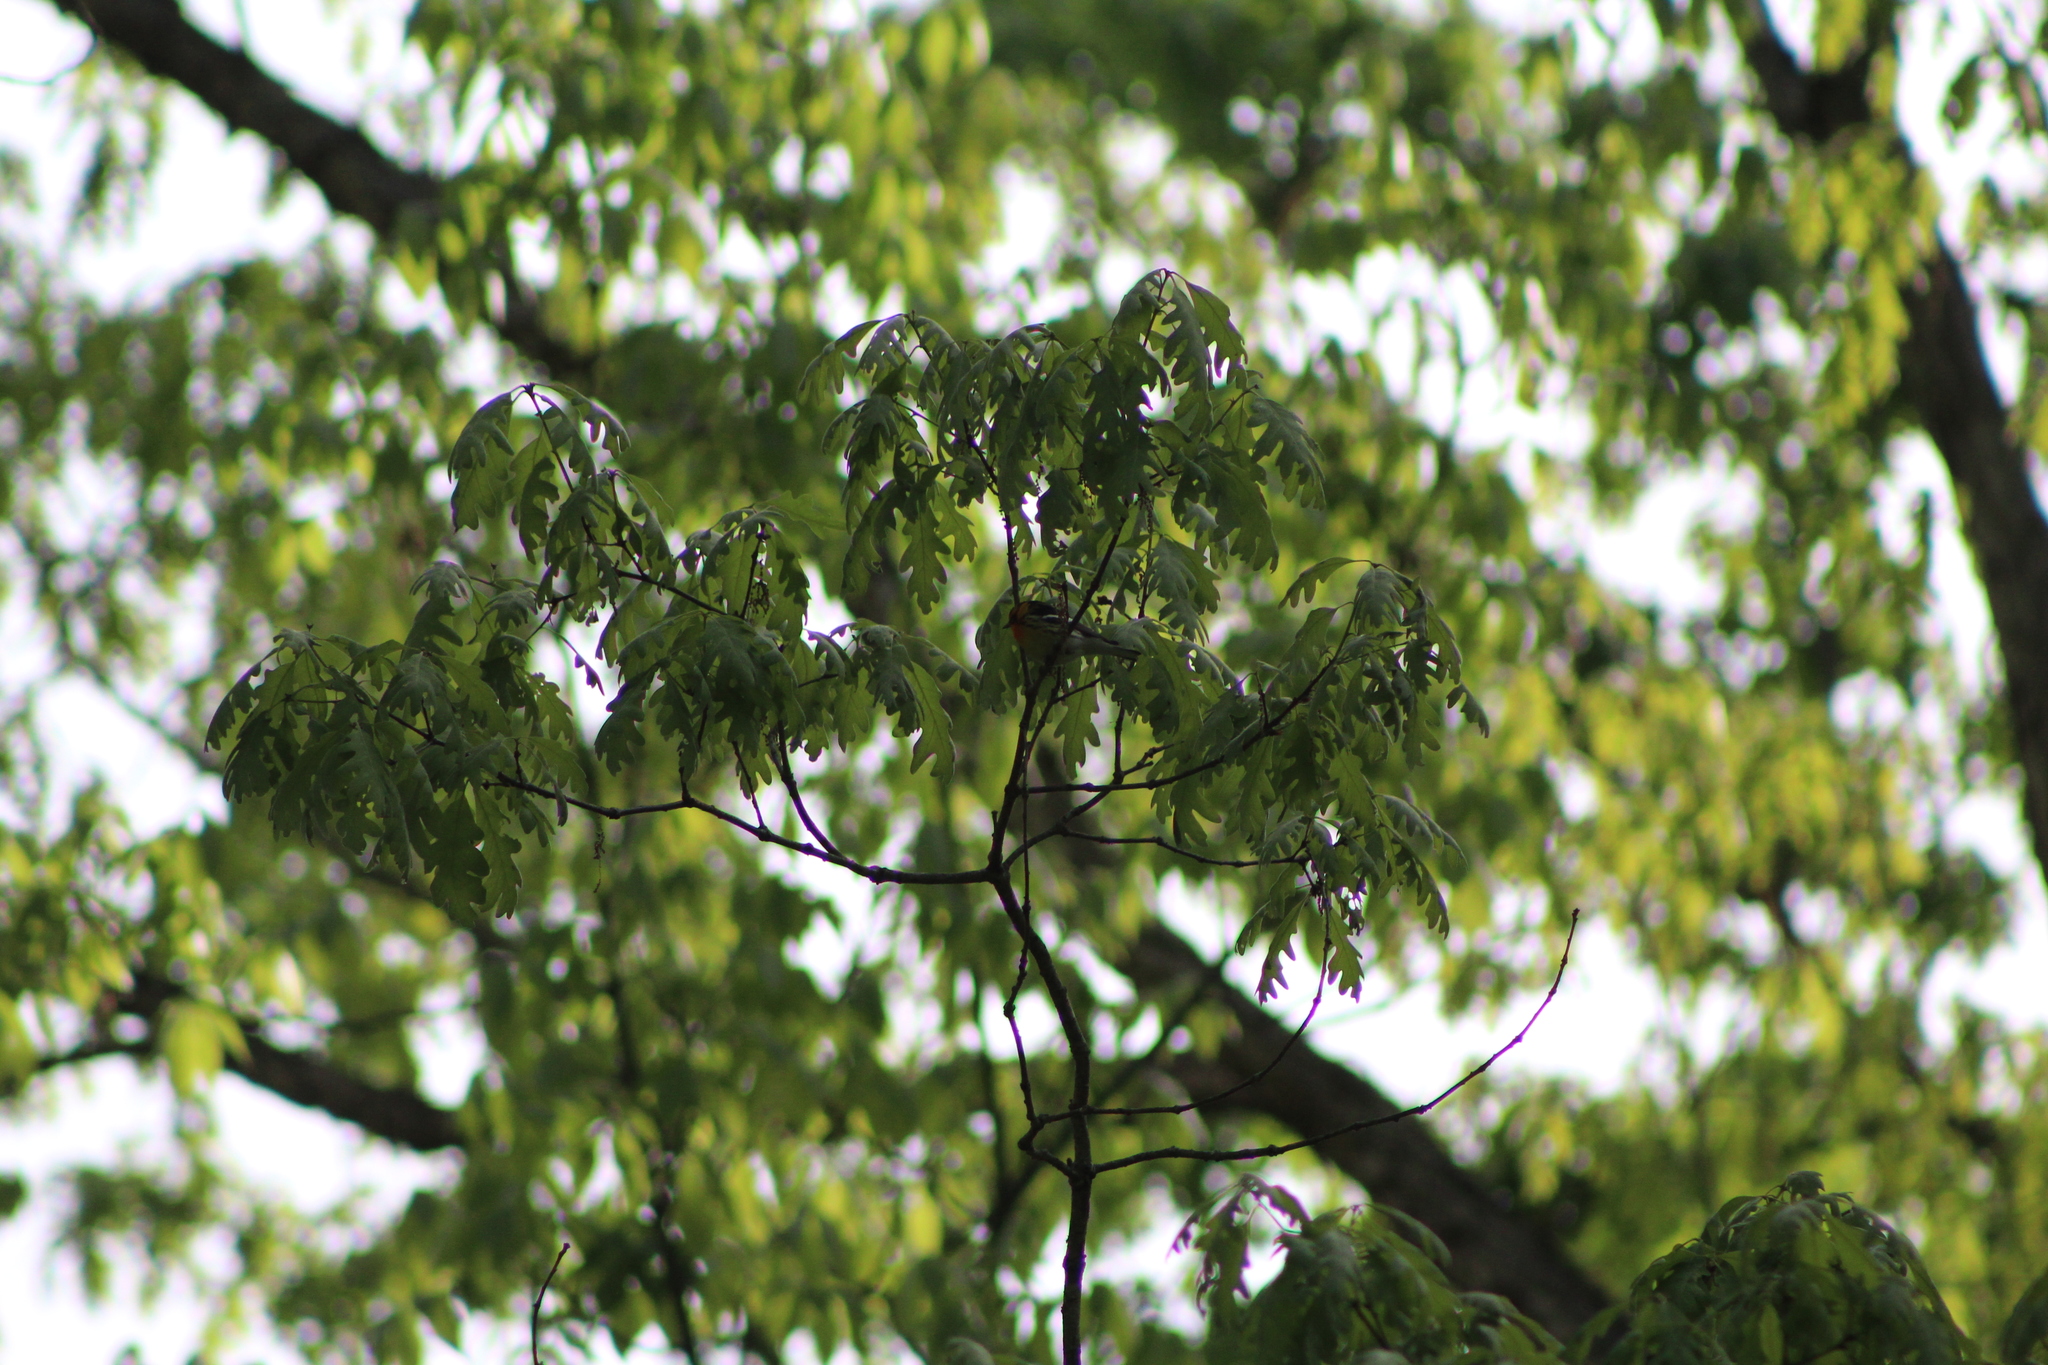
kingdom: Animalia
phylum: Chordata
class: Aves
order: Passeriformes
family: Parulidae
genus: Setophaga
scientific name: Setophaga fusca
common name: Blackburnian warbler
